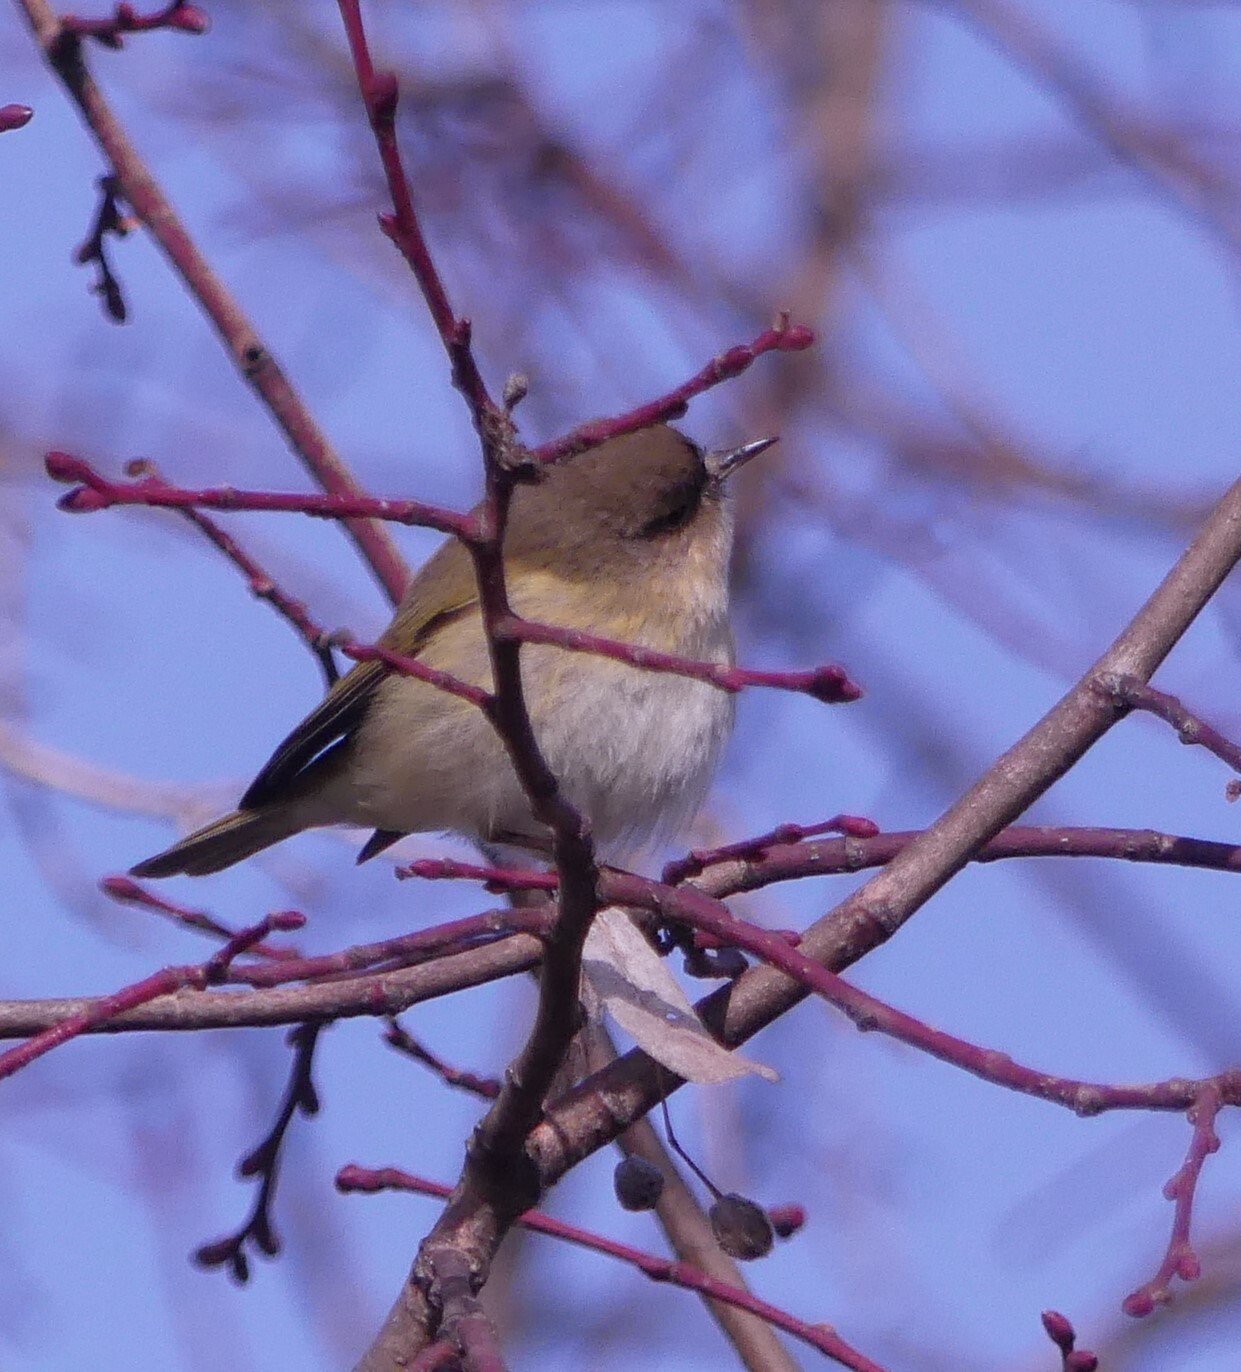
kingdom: Animalia
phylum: Chordata
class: Aves
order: Passeriformes
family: Phylloscopidae
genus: Phylloscopus
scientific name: Phylloscopus collybita
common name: Common chiffchaff
